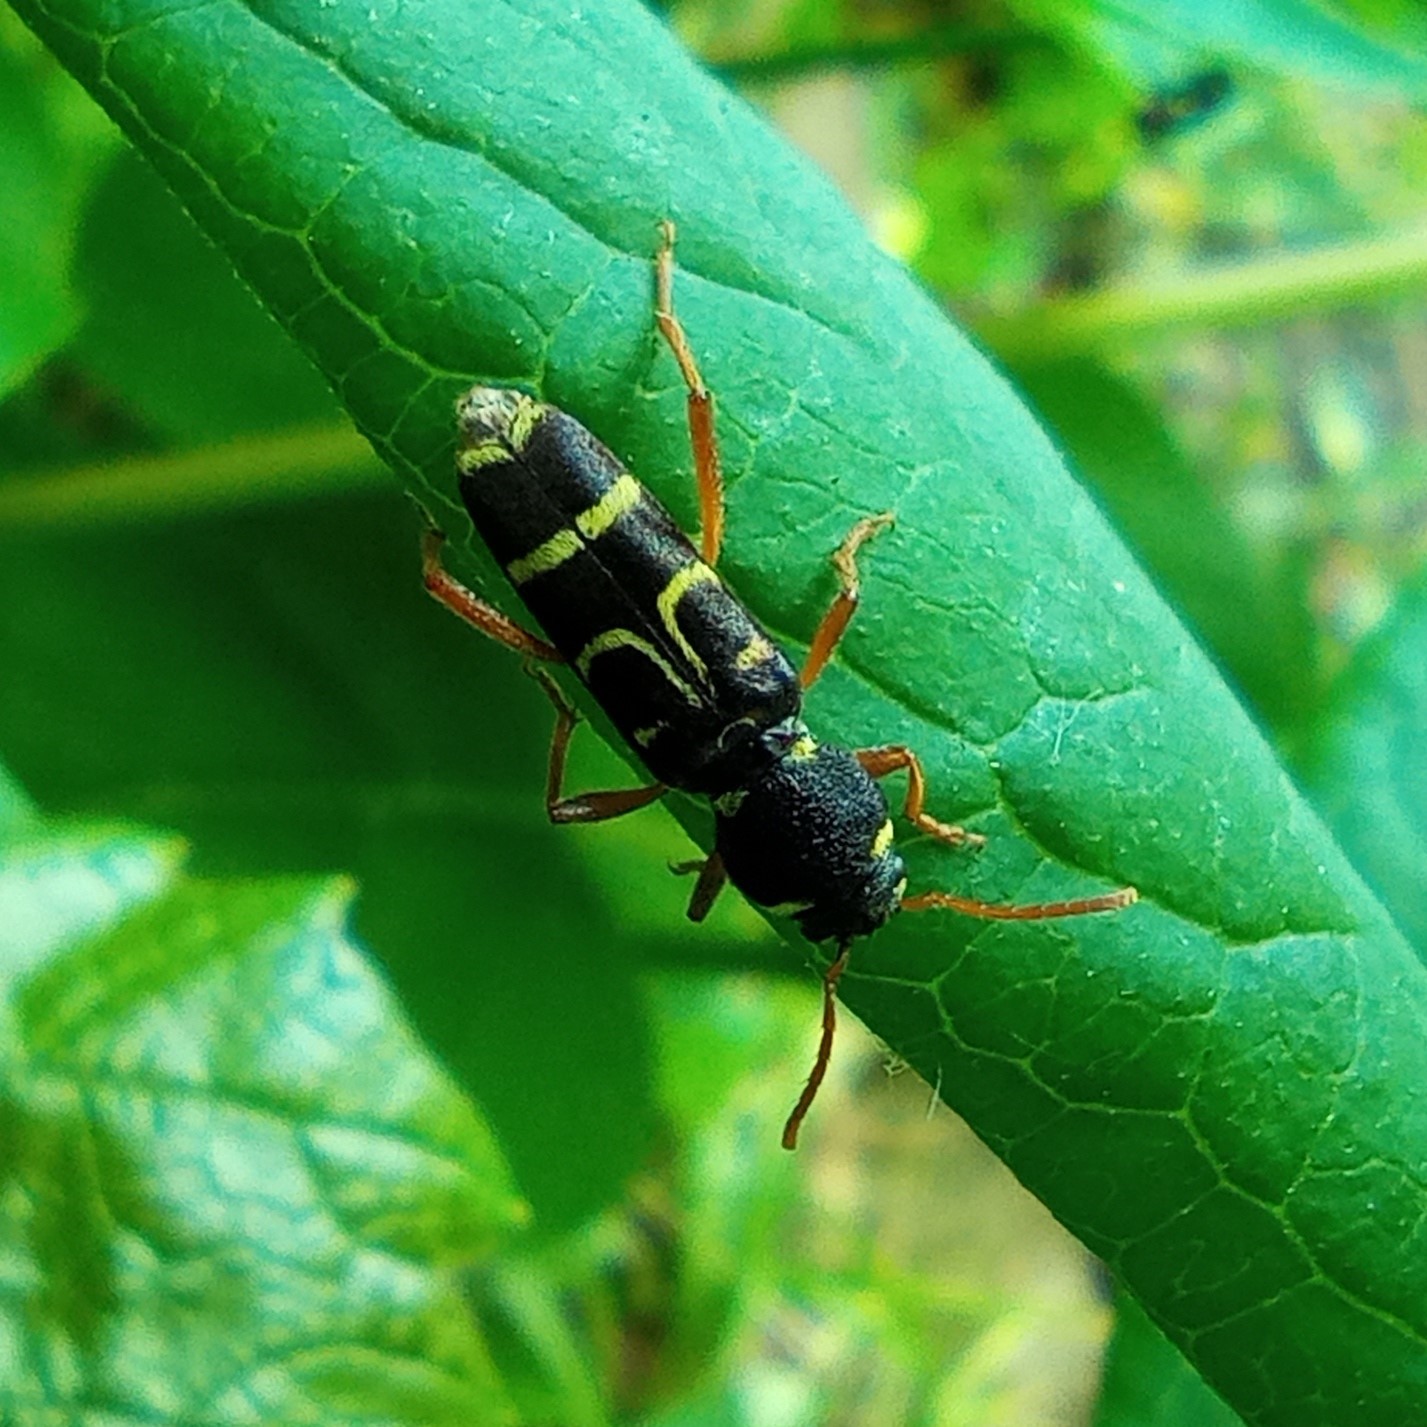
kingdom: Animalia
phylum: Arthropoda
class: Insecta
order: Coleoptera
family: Cerambycidae
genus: Xylotrechus
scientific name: Xylotrechus arvicola
